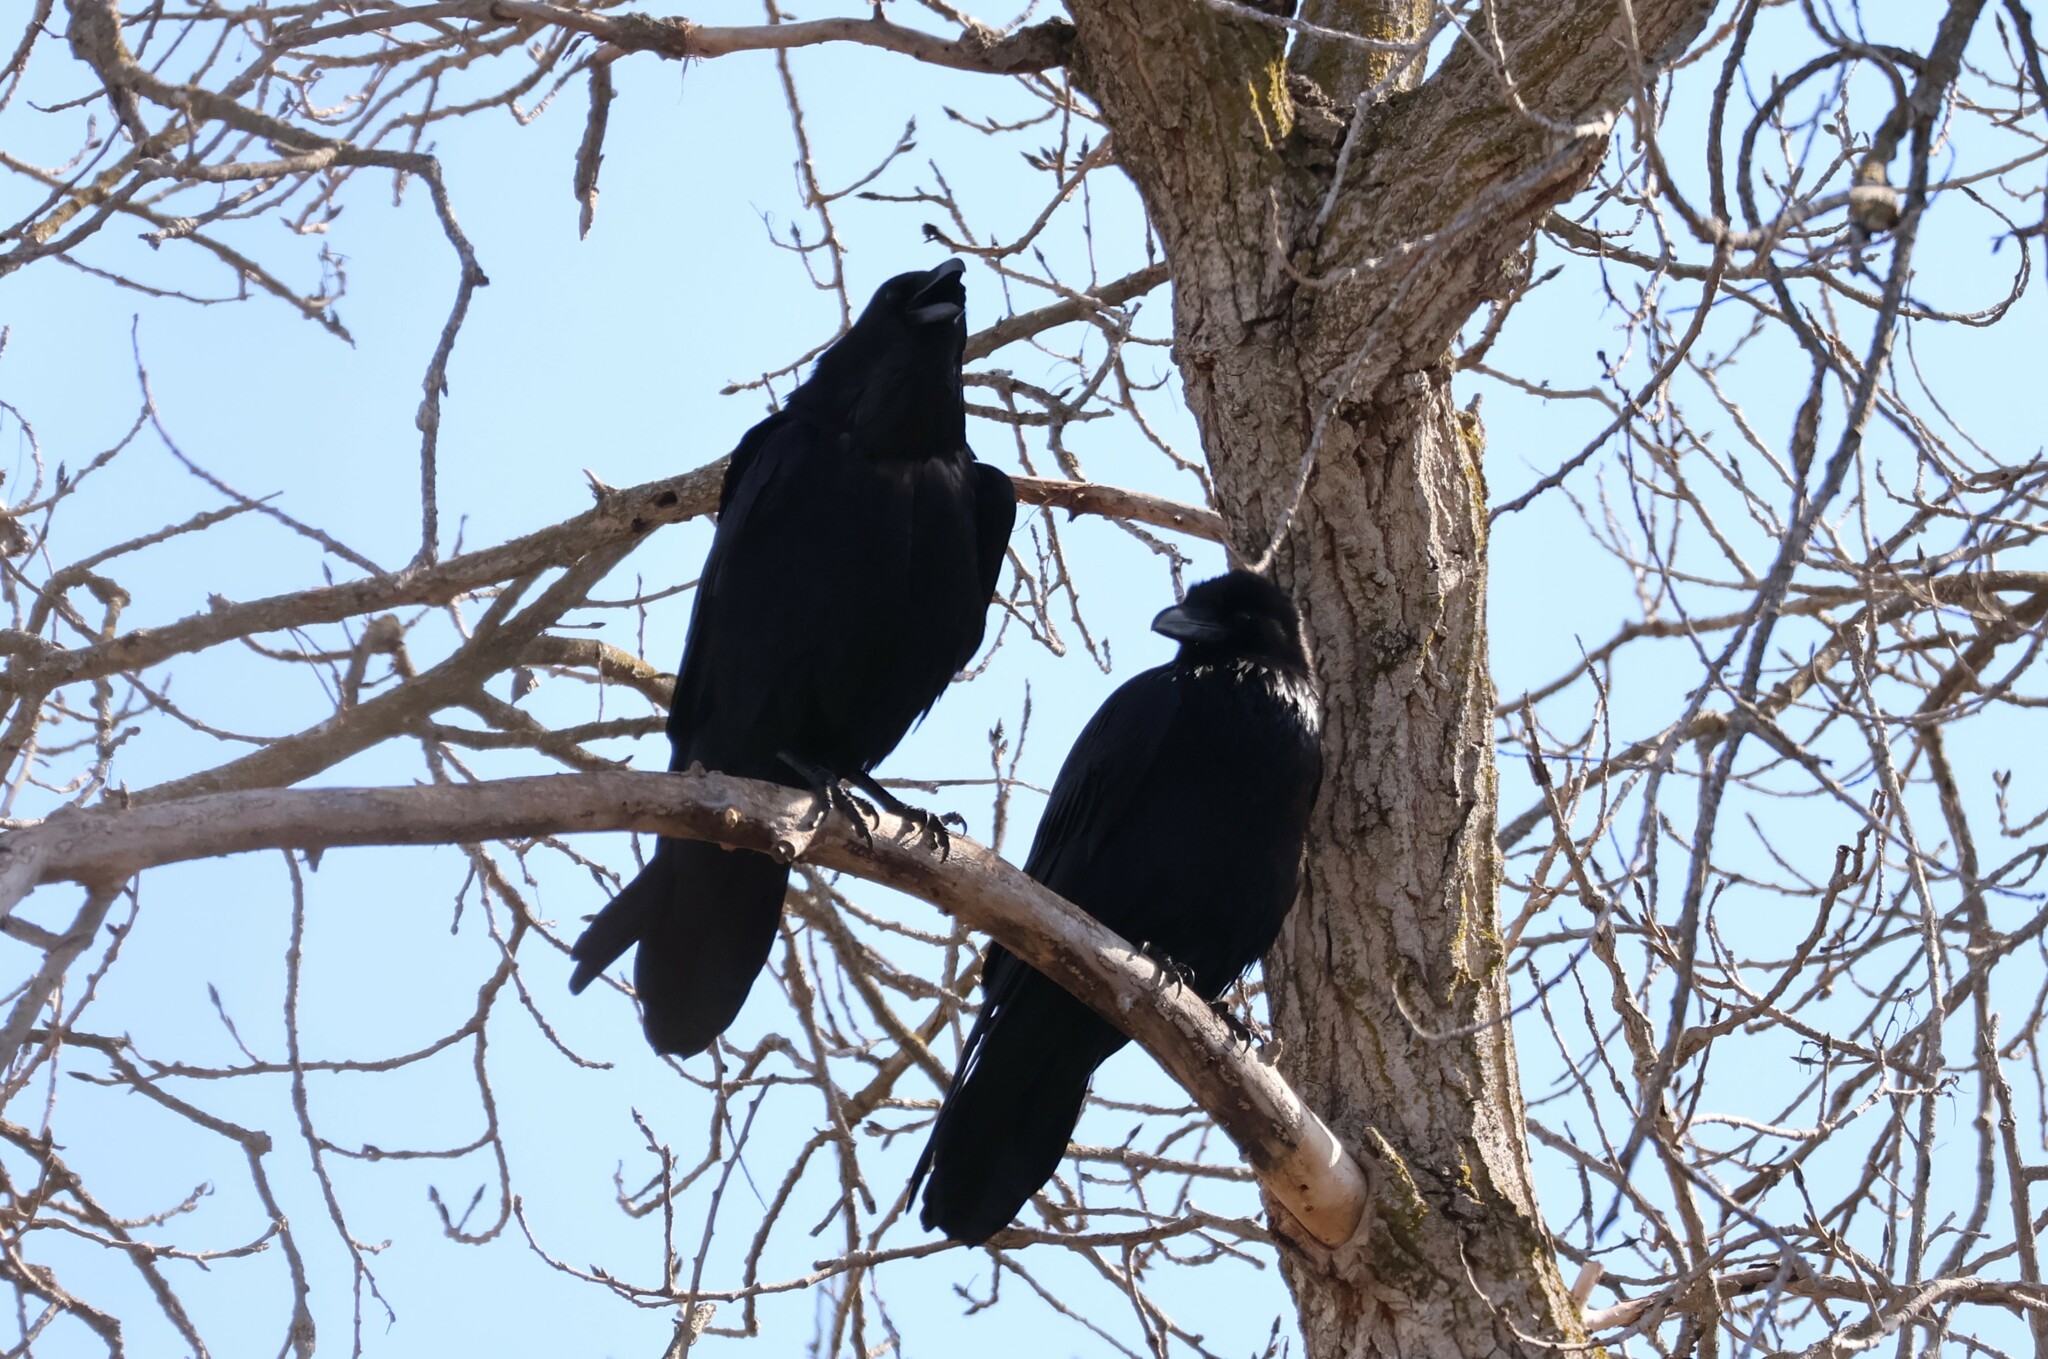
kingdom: Animalia
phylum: Chordata
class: Aves
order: Passeriformes
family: Corvidae
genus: Corvus
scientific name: Corvus corax
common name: Common raven
